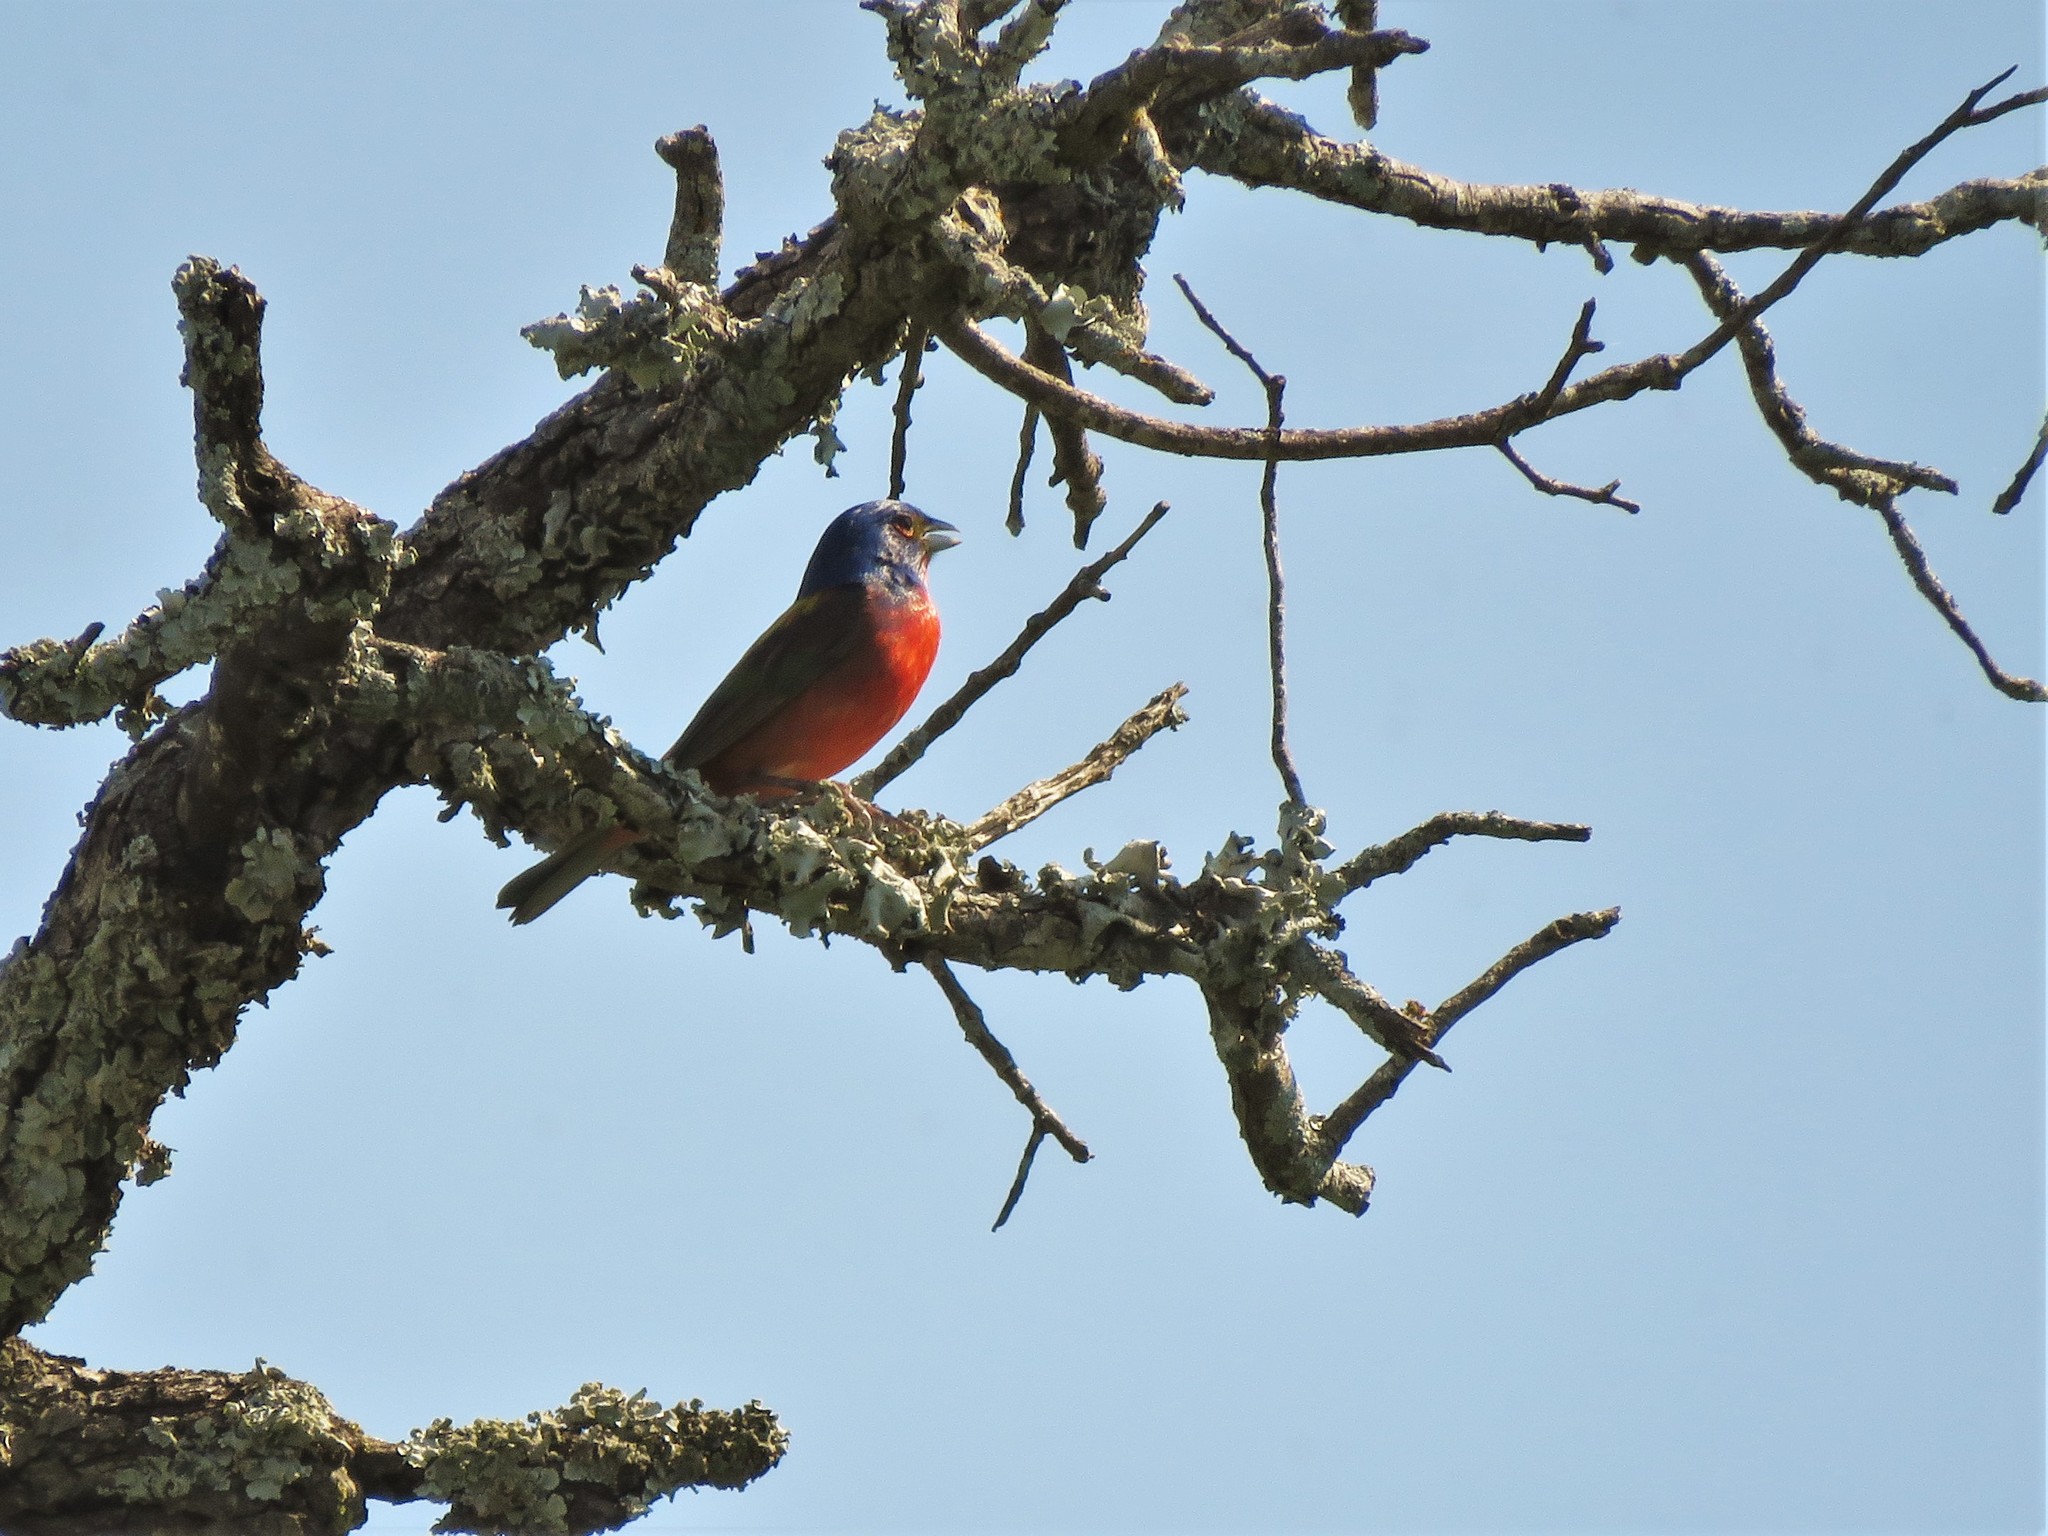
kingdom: Animalia
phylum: Chordata
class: Aves
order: Passeriformes
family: Cardinalidae
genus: Passerina
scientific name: Passerina ciris
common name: Painted bunting
